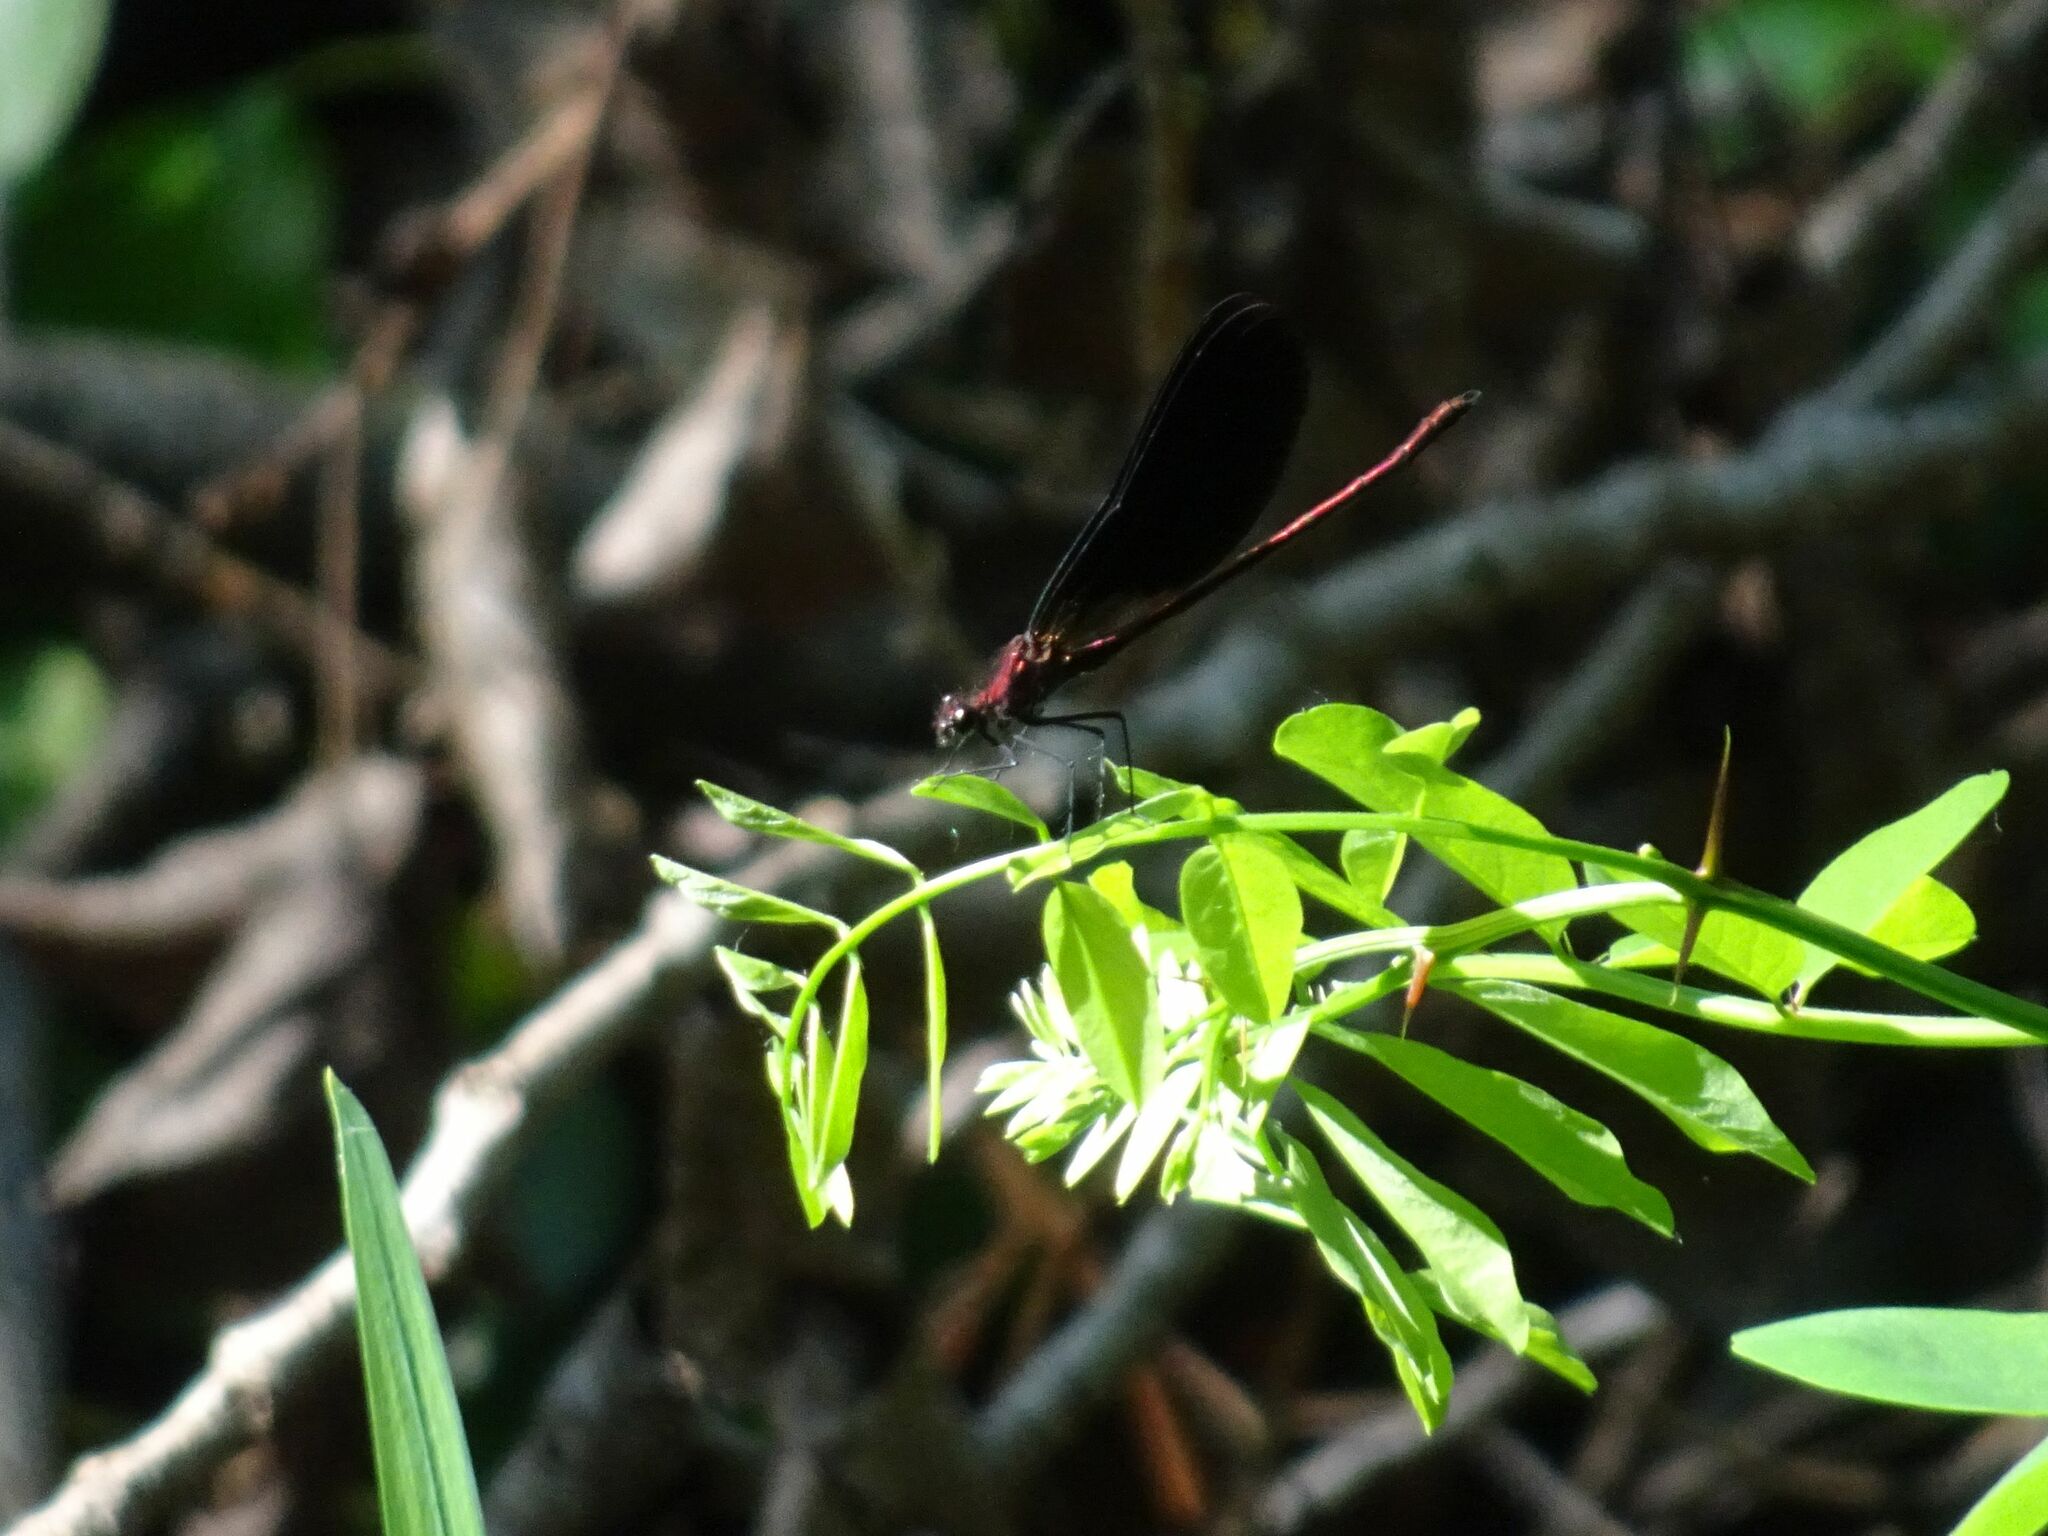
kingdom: Animalia
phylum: Arthropoda
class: Insecta
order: Odonata
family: Calopterygidae
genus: Calopteryx
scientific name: Calopteryx haemorrhoidalis
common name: Copper demoiselle
